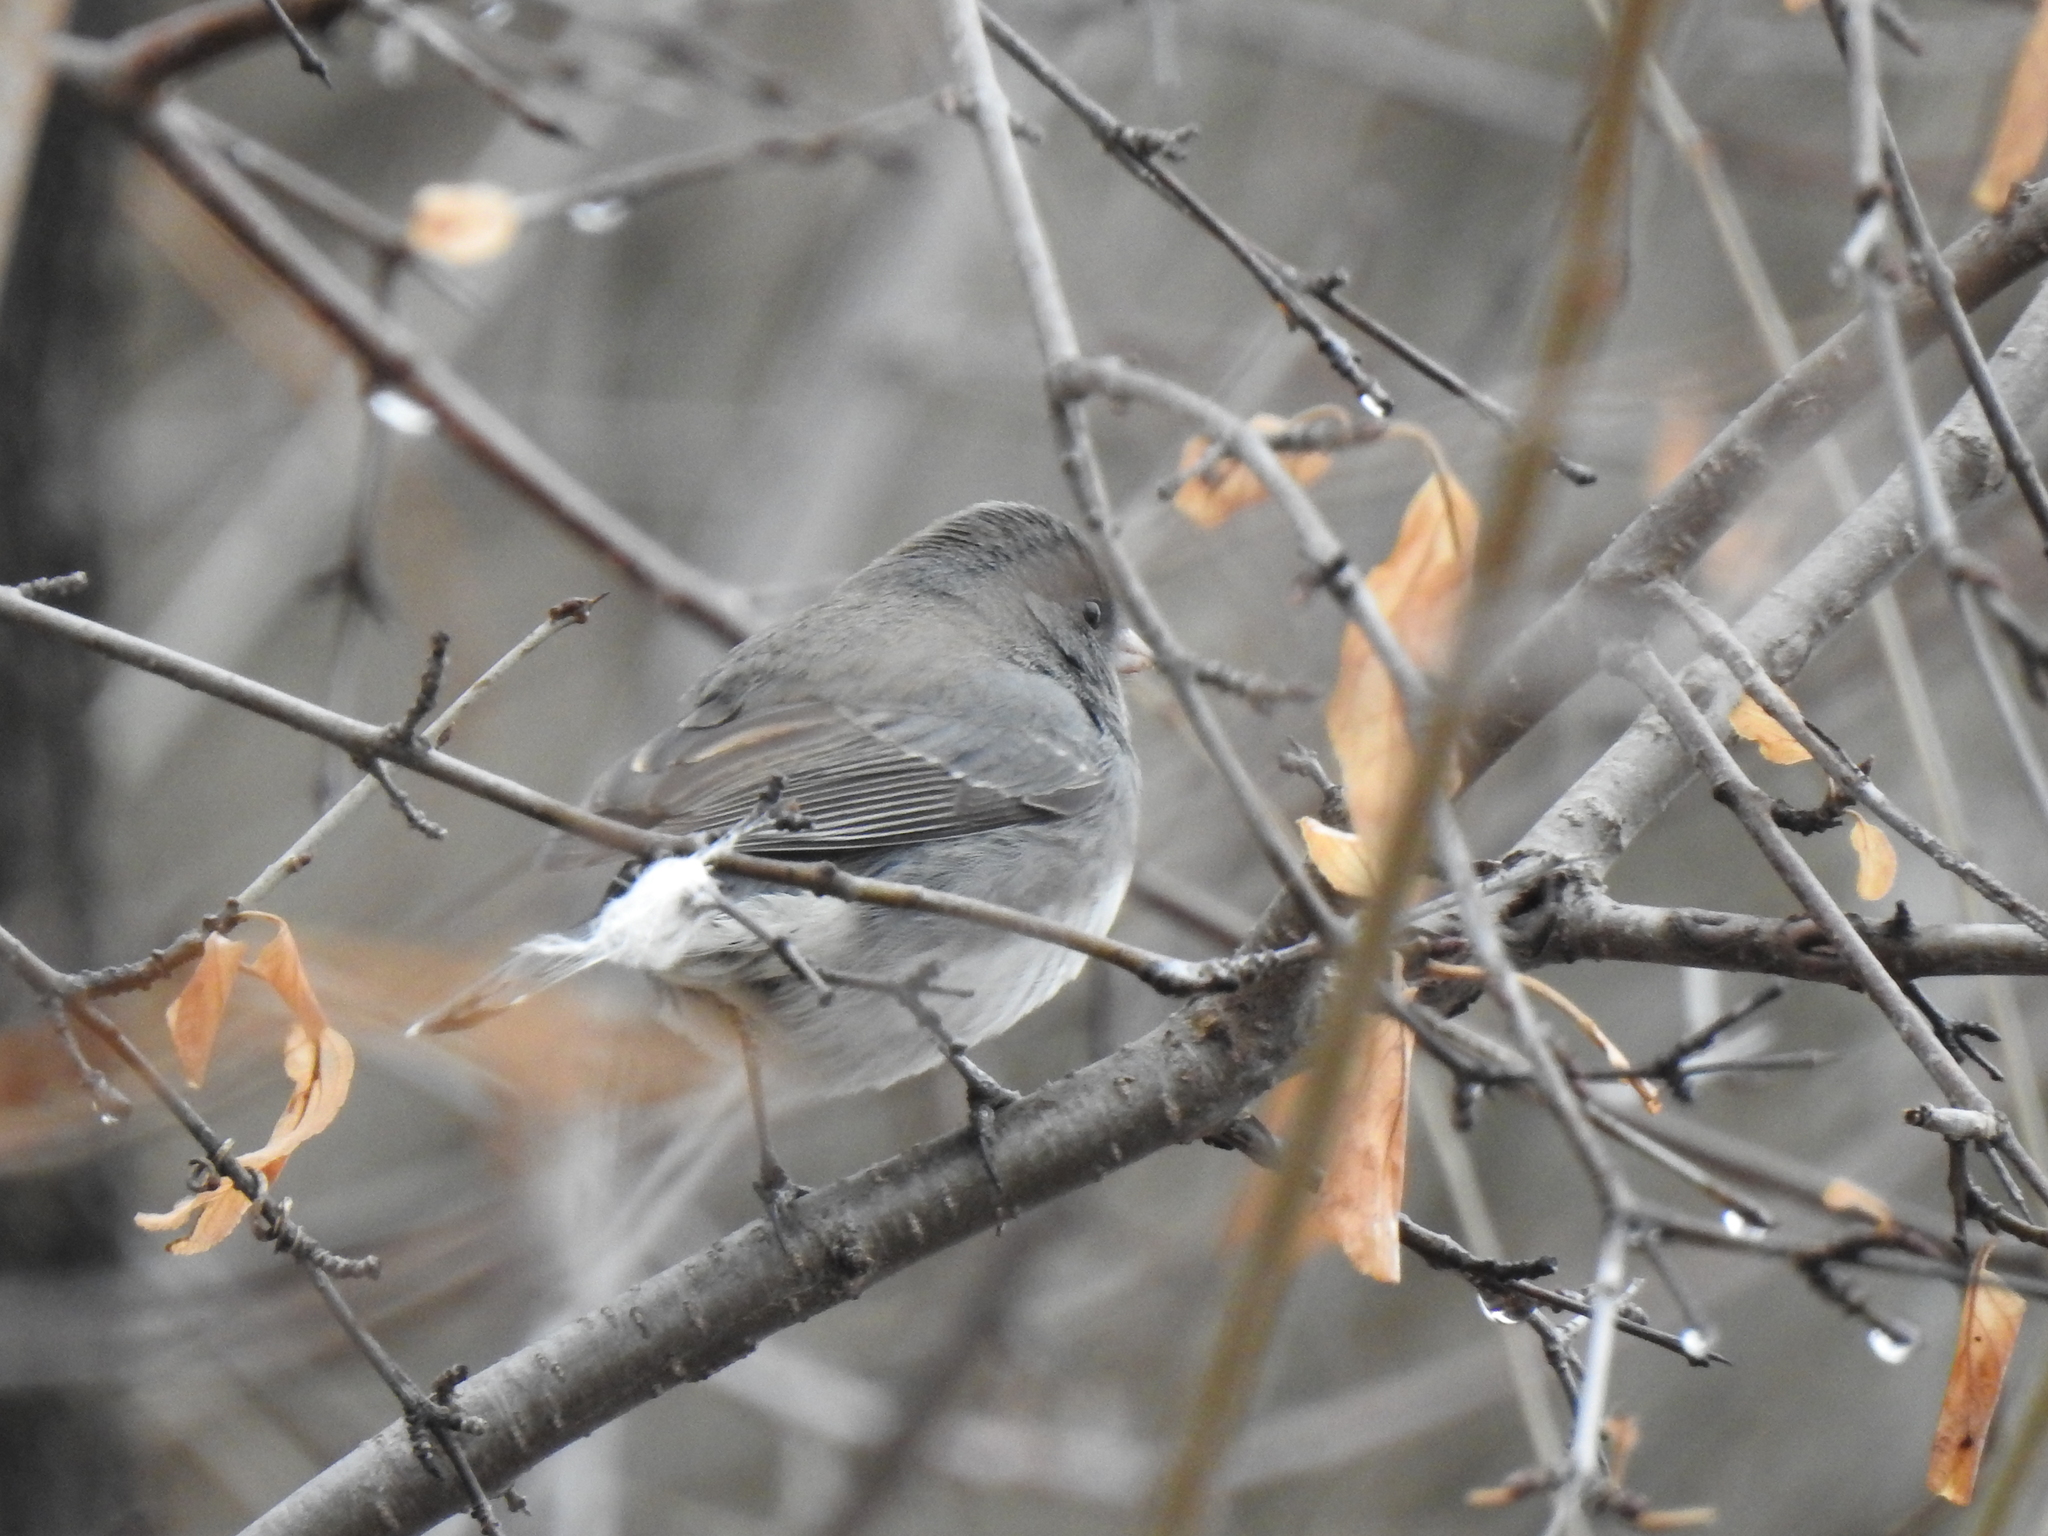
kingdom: Animalia
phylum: Chordata
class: Aves
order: Passeriformes
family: Passerellidae
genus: Junco
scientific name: Junco hyemalis
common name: Dark-eyed junco
